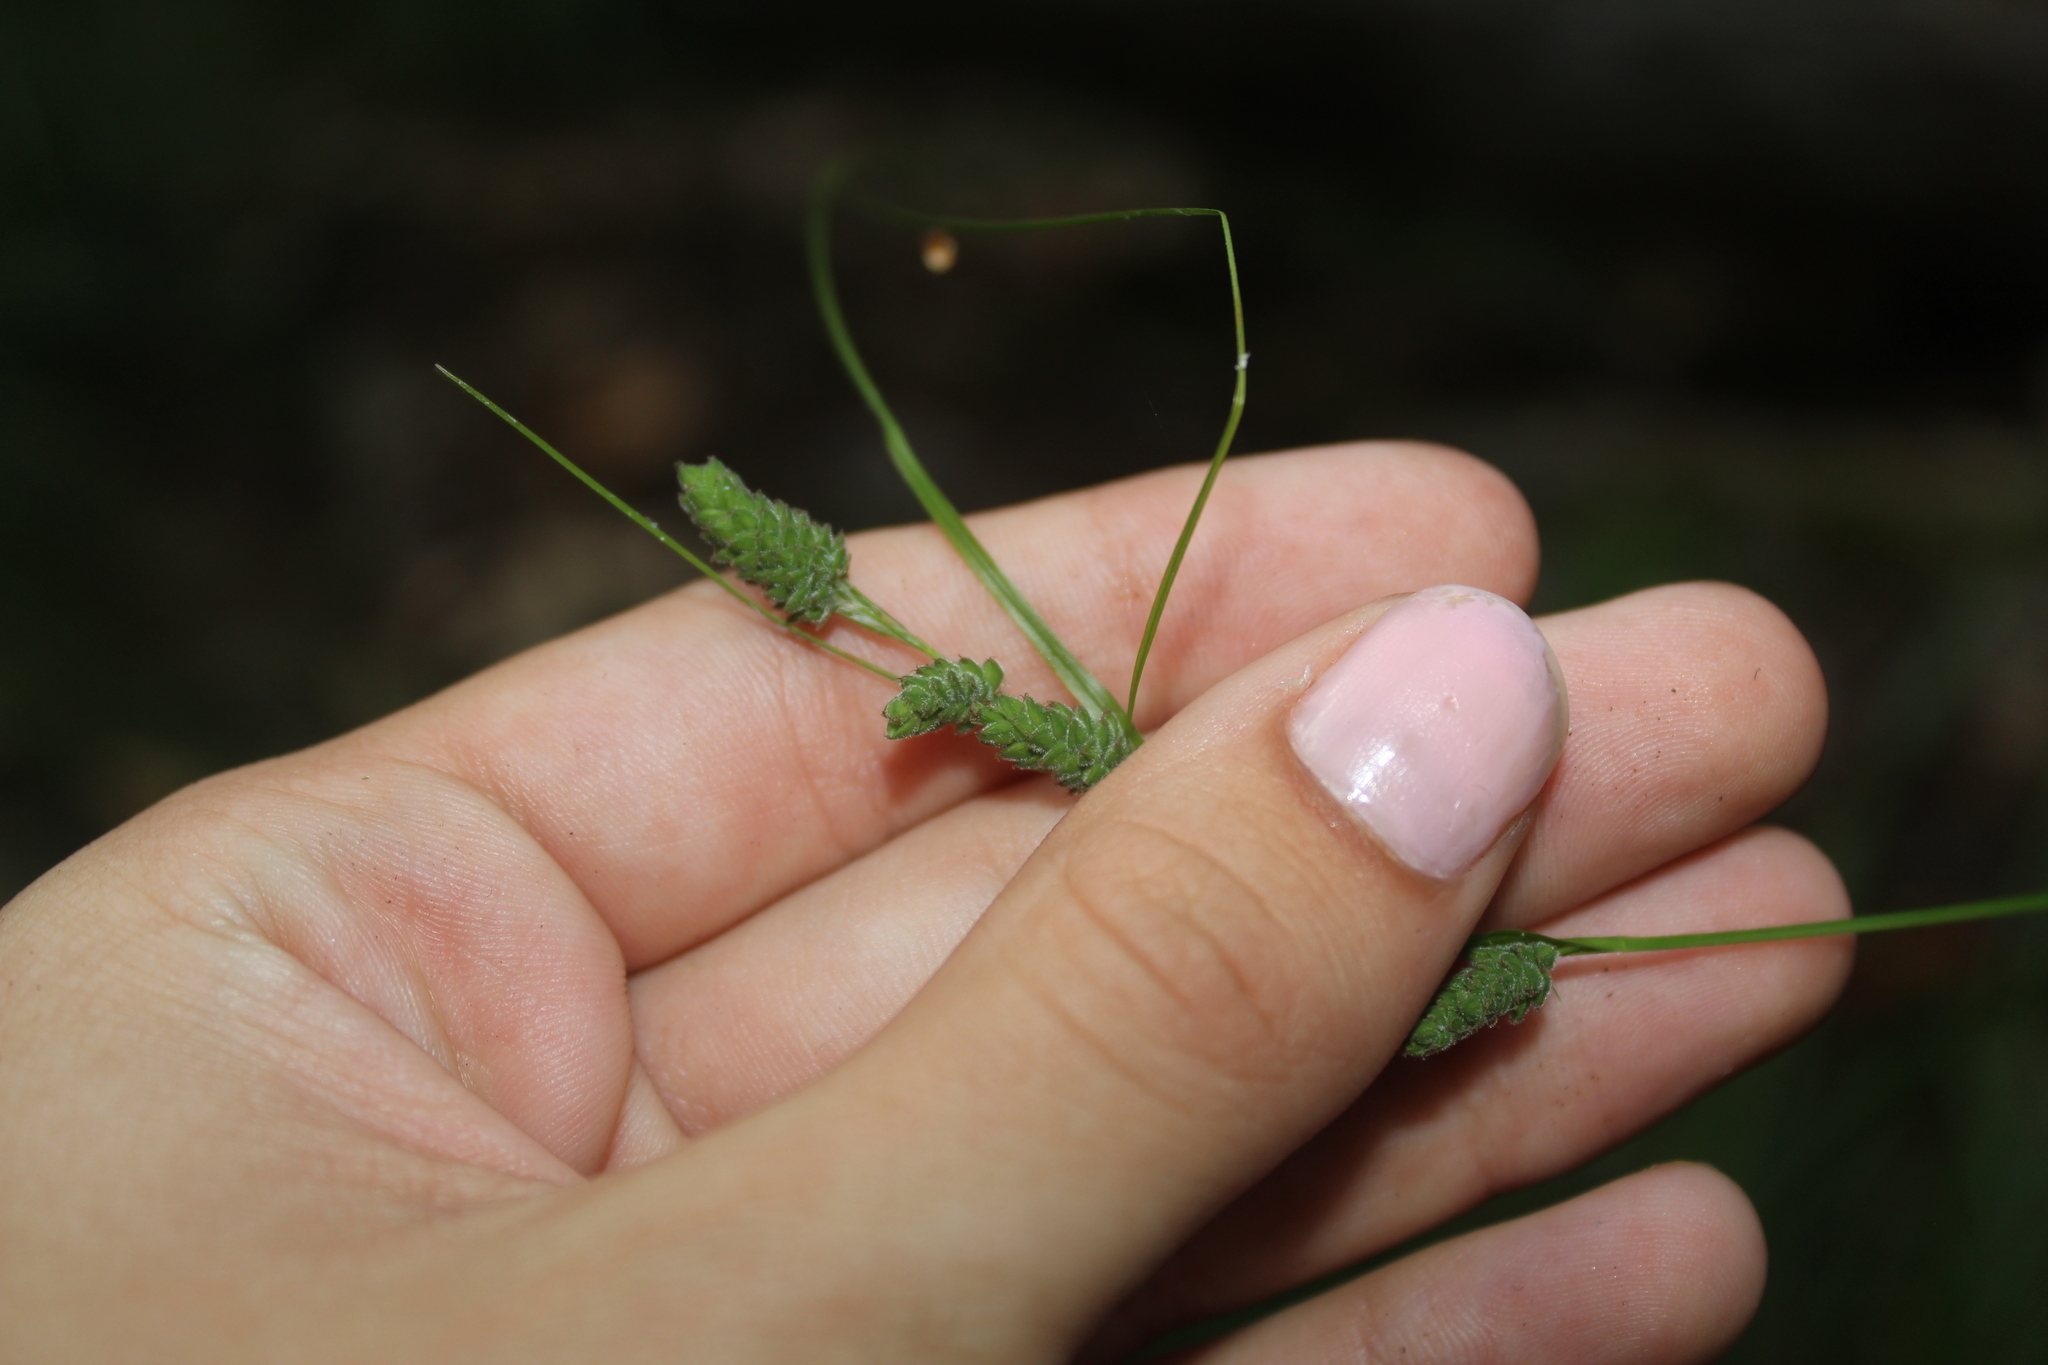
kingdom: Plantae
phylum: Tracheophyta
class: Liliopsida
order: Poales
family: Cyperaceae
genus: Carex
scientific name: Carex swanii
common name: Downy green sedge
